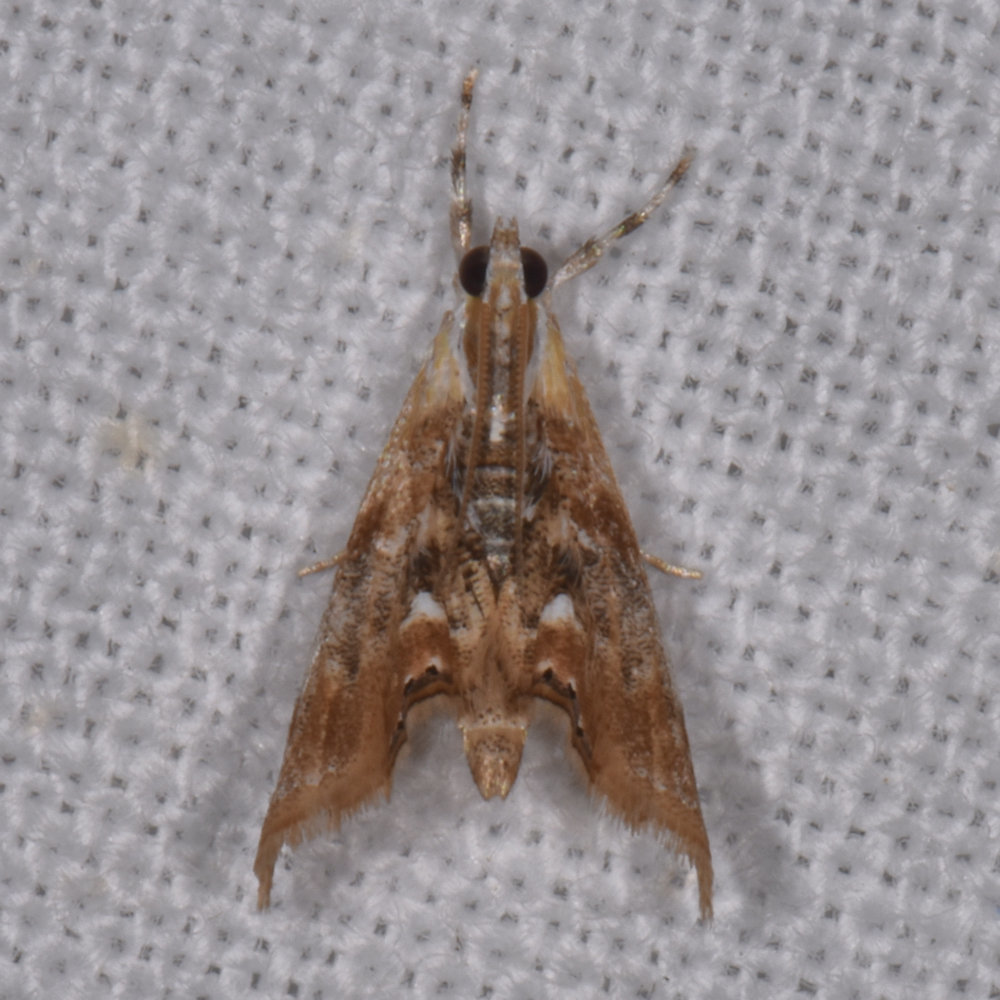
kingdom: Animalia
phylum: Arthropoda
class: Insecta
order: Lepidoptera
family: Crambidae
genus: Dicymolomia
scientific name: Dicymolomia julianalis
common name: Julia's dicymolomia moth
